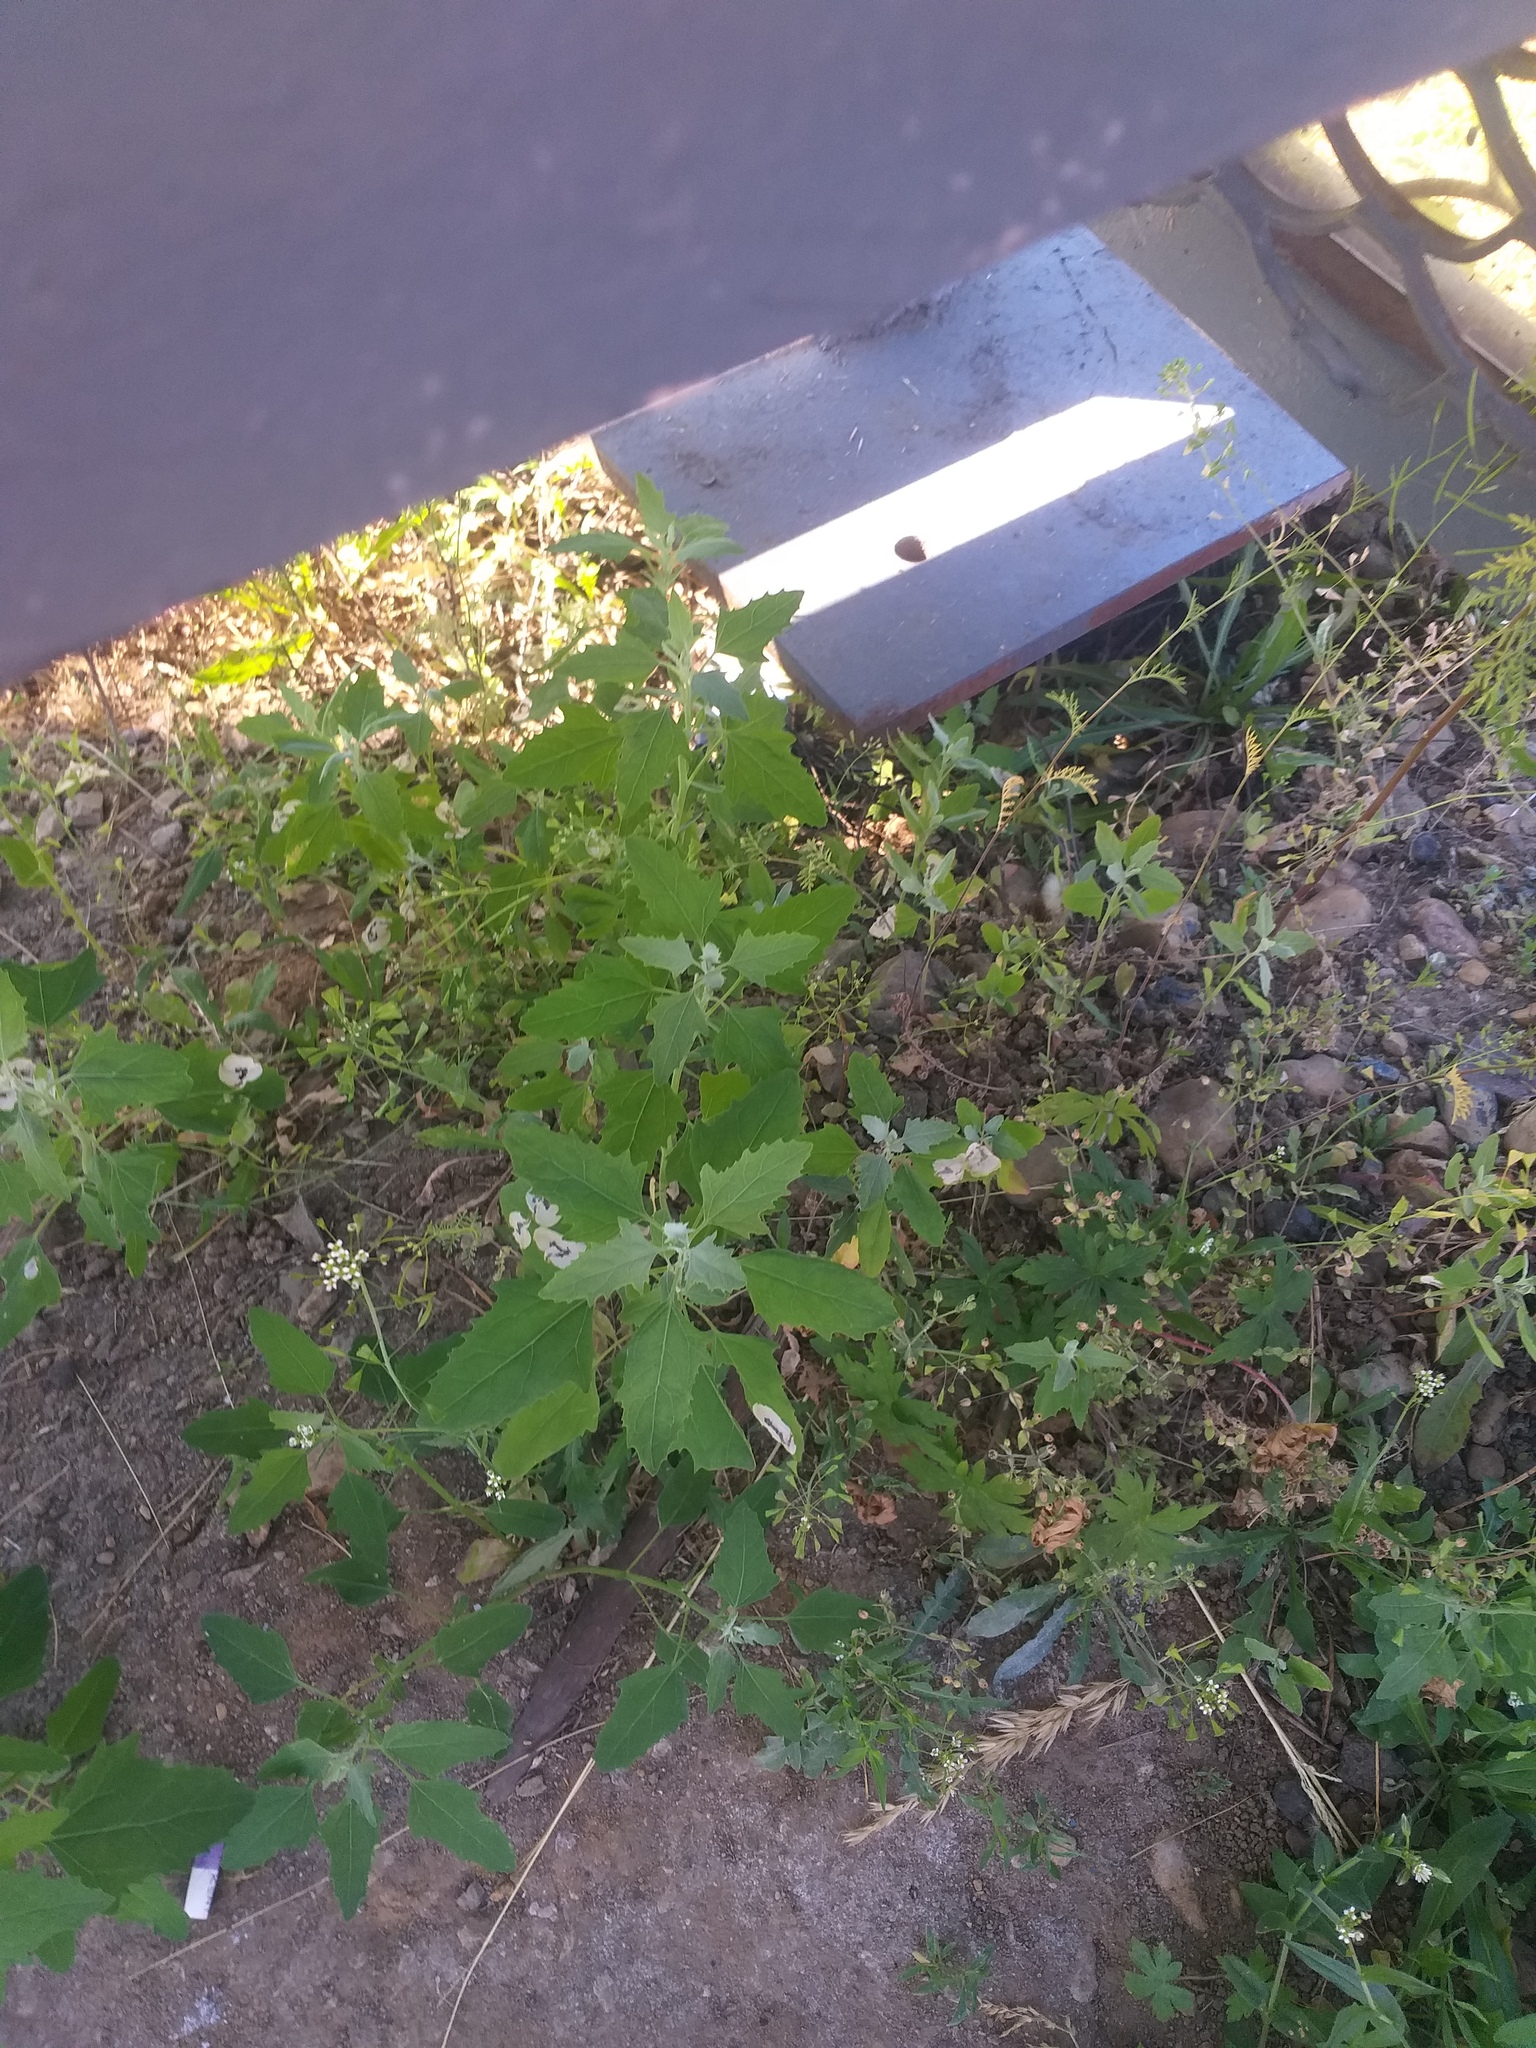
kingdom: Plantae
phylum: Tracheophyta
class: Magnoliopsida
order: Caryophyllales
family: Amaranthaceae
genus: Chenopodium
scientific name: Chenopodium album
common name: Fat-hen
